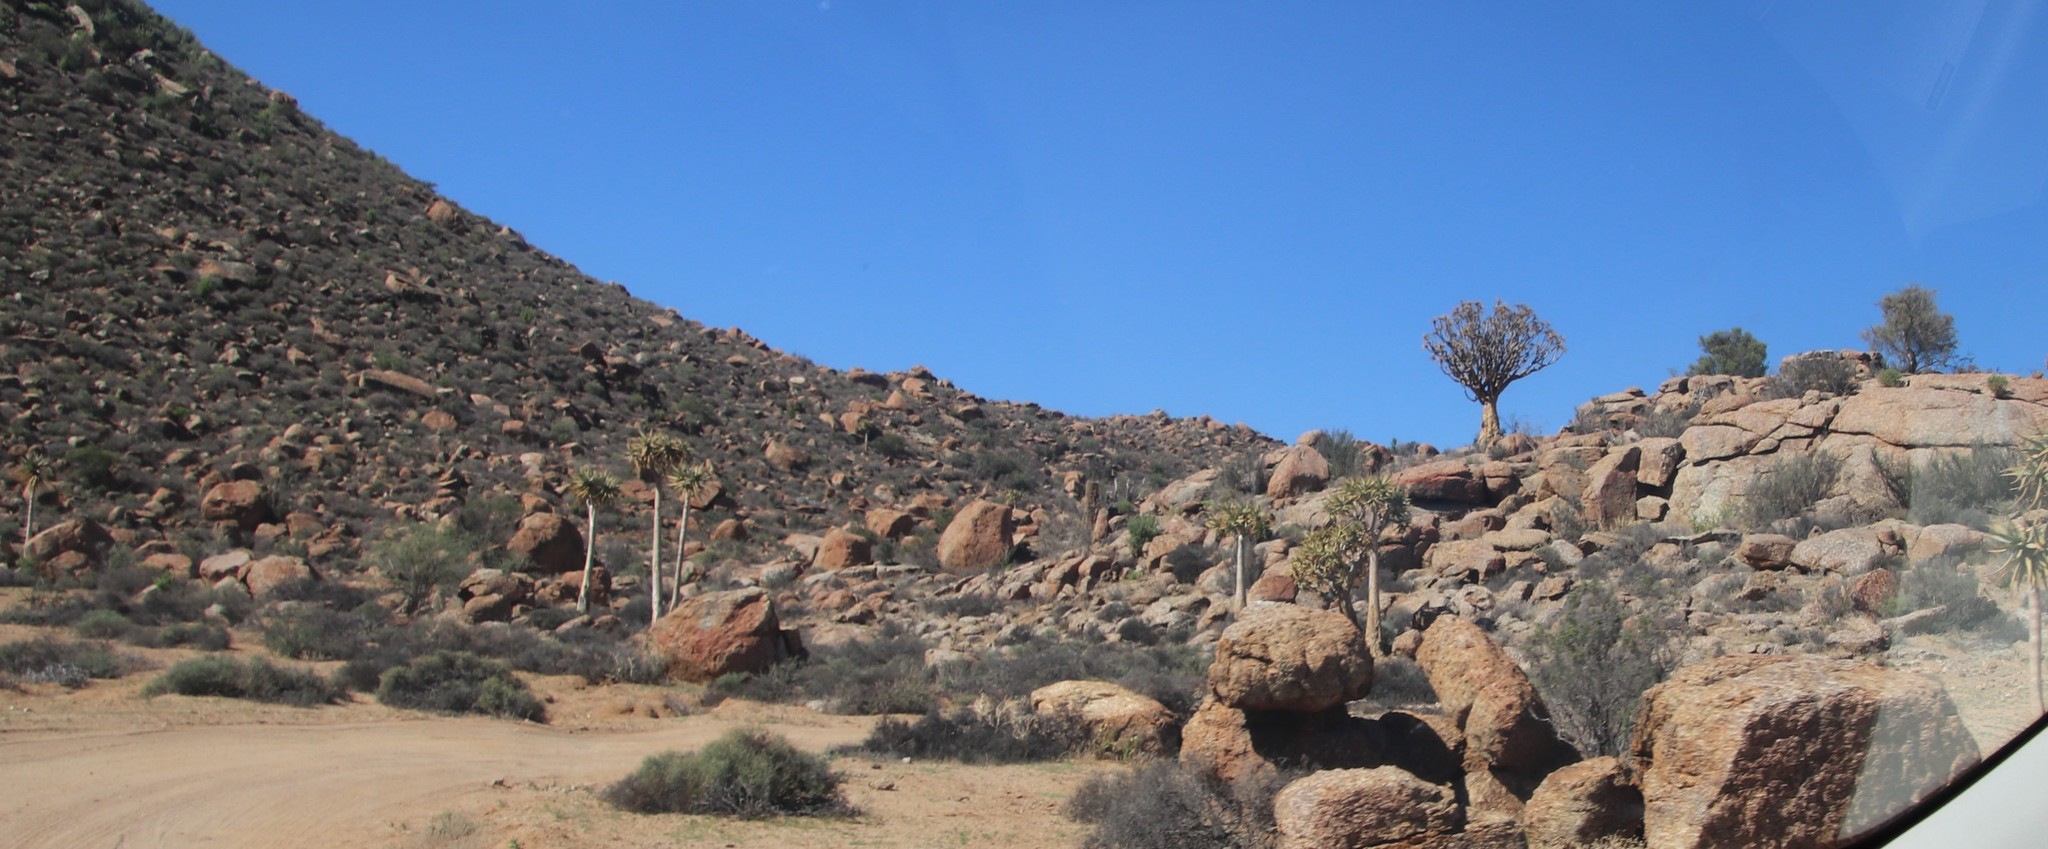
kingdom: Plantae
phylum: Tracheophyta
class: Liliopsida
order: Asparagales
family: Asphodelaceae
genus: Aloidendron
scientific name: Aloidendron dichotomum
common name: Quiver tree
